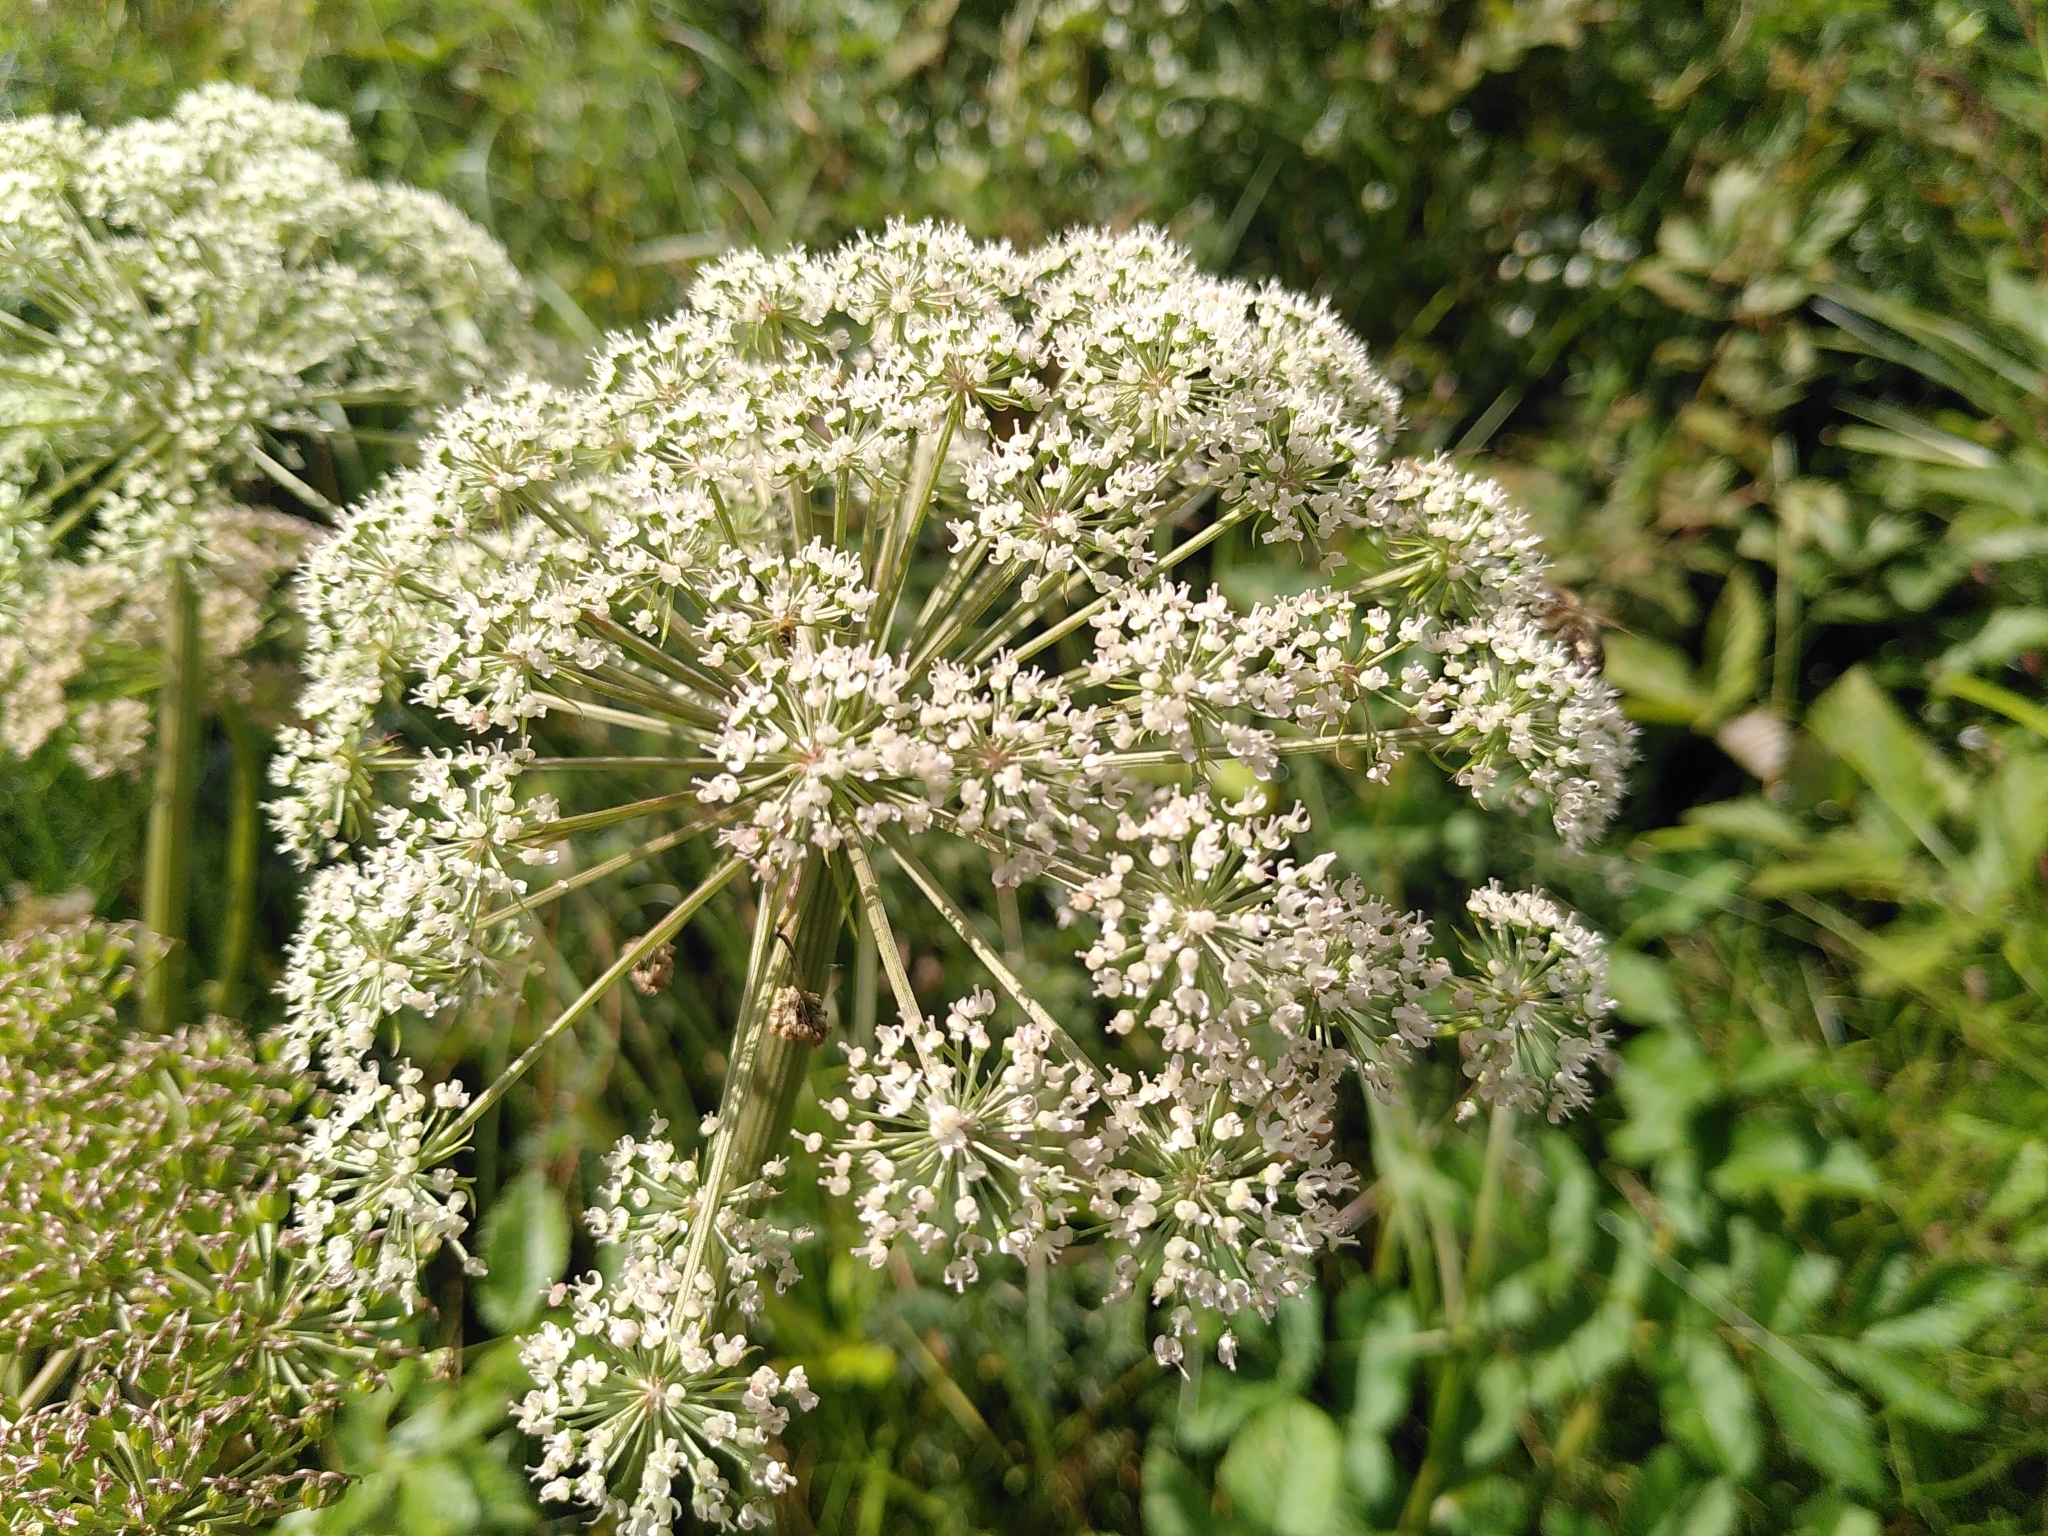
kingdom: Plantae
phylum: Tracheophyta
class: Magnoliopsida
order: Apiales
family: Apiaceae
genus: Angelica
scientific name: Angelica sylvestris
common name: Wild angelica
